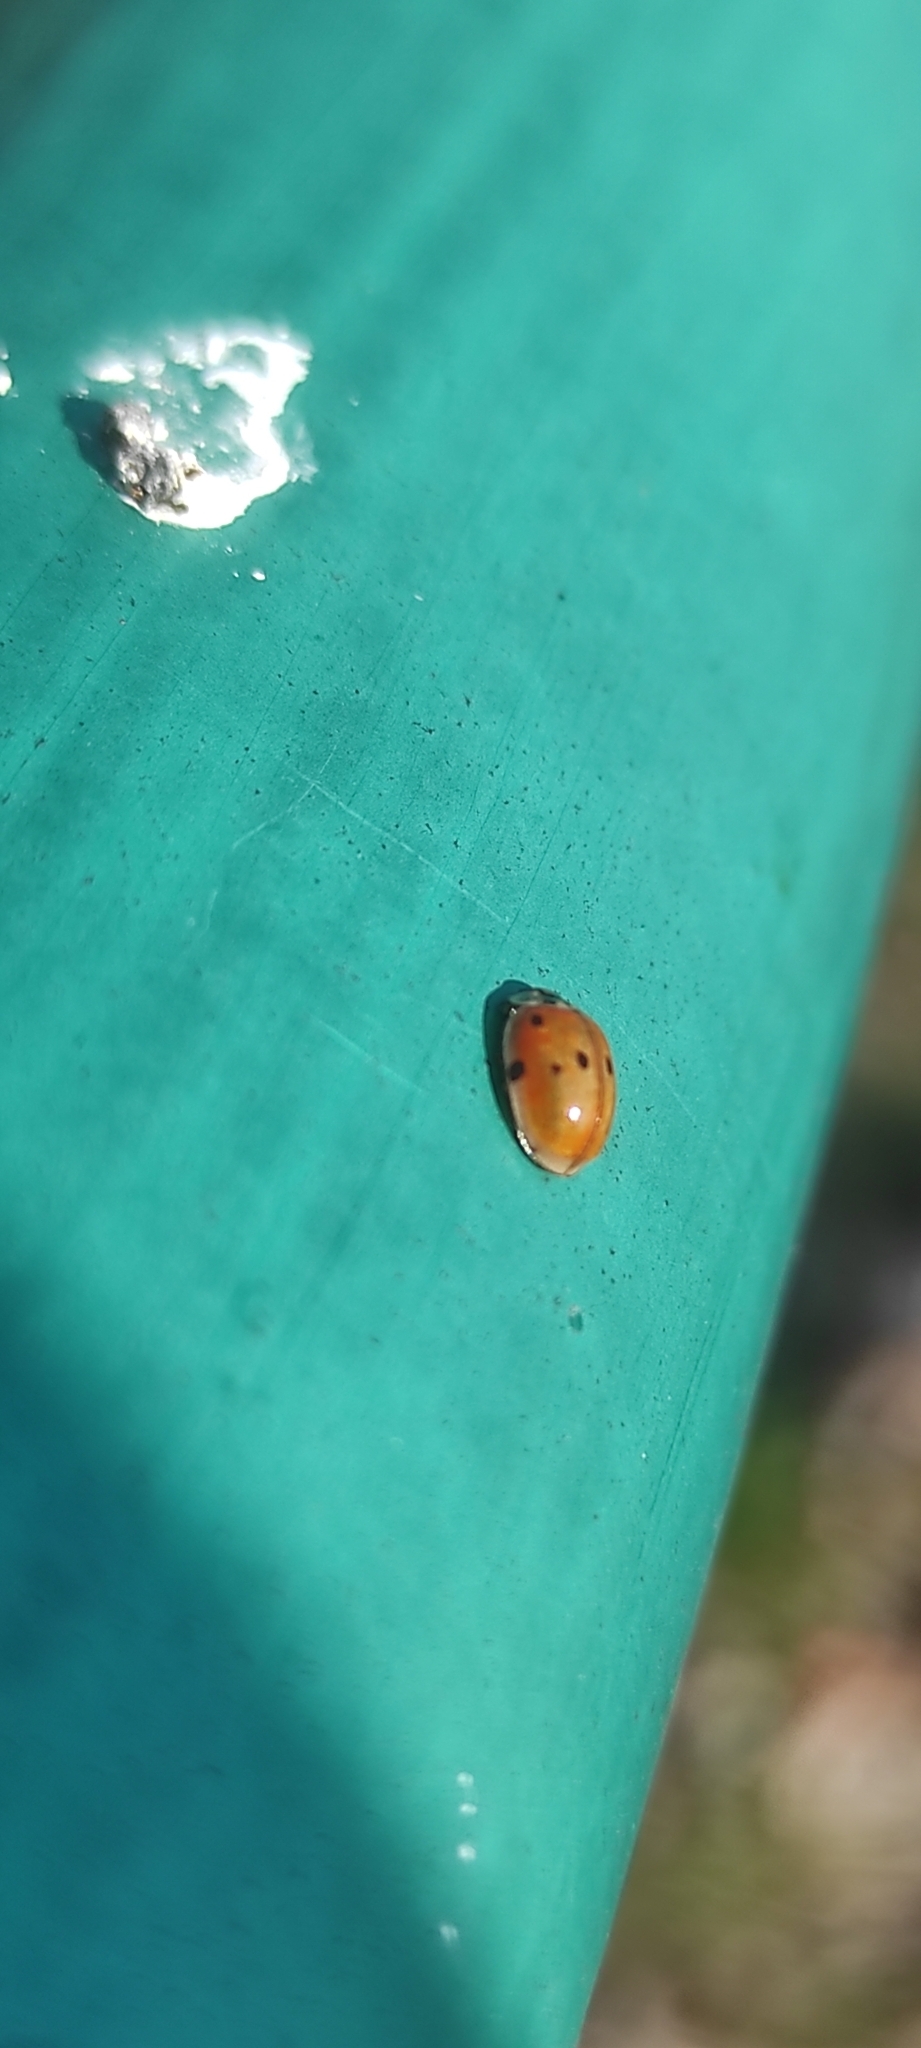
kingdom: Animalia
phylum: Arthropoda
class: Insecta
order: Coleoptera
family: Coccinellidae
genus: Adalia
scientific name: Adalia decempunctata
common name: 10-spot ladybird
